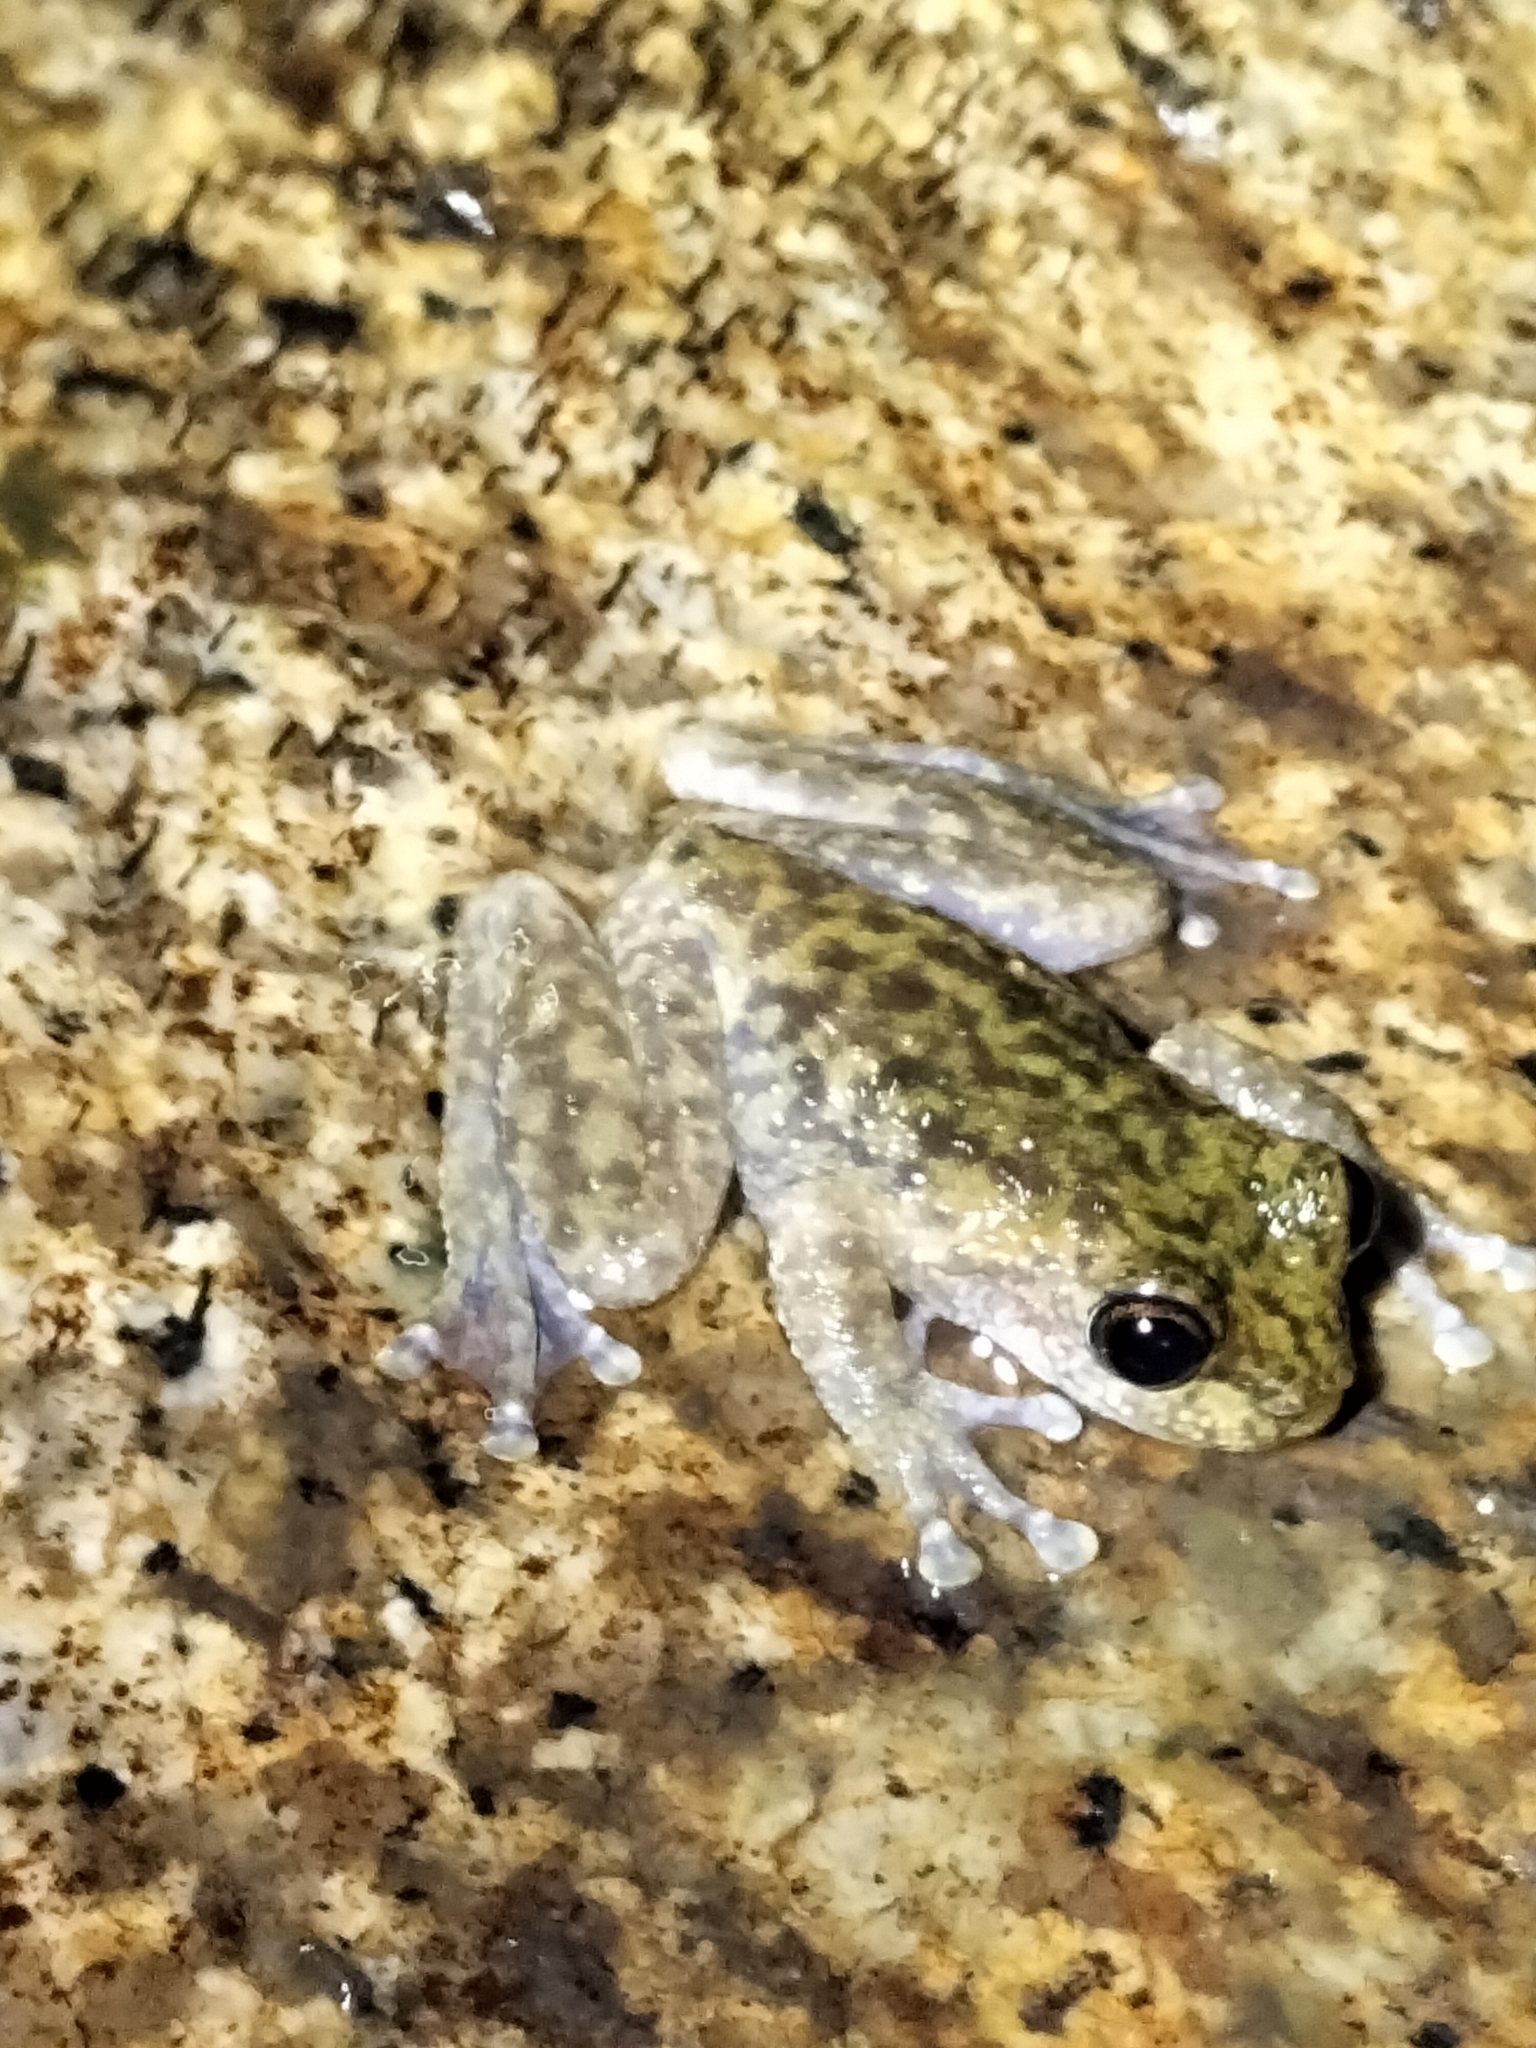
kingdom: Animalia
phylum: Chordata
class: Amphibia
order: Anura
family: Pelodryadidae
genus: Ranoidea
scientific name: Ranoidea nannotis
